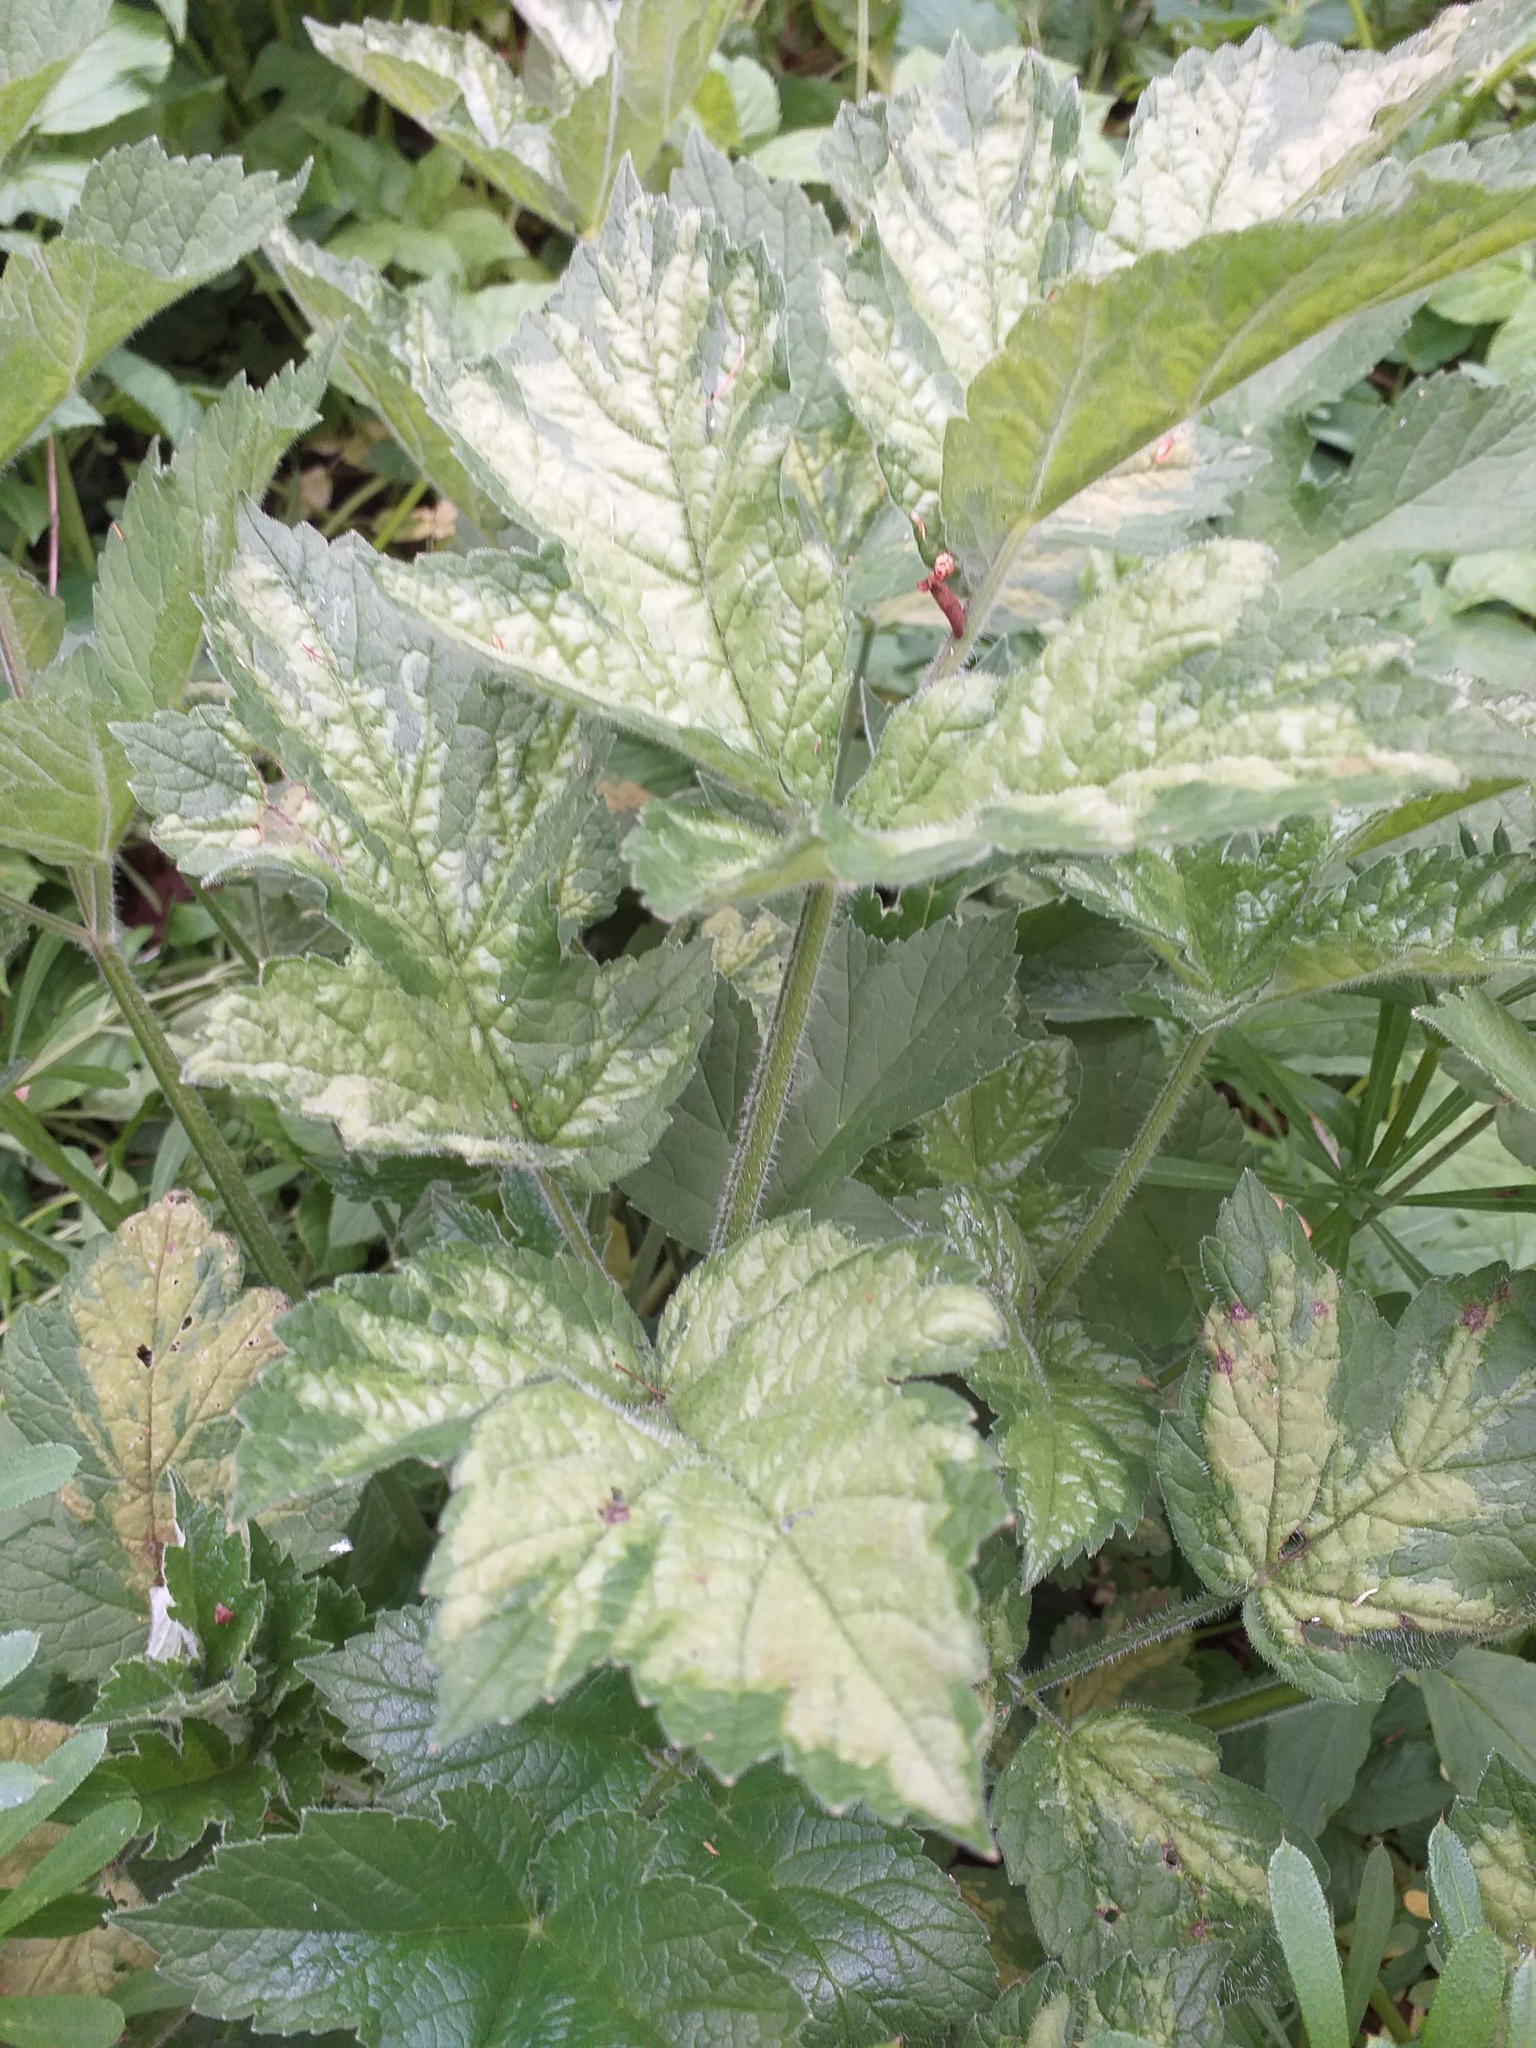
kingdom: Plantae
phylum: Tracheophyta
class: Magnoliopsida
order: Apiales
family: Apiaceae
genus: Heracleum
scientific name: Heracleum sphondylium
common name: Hogweed
